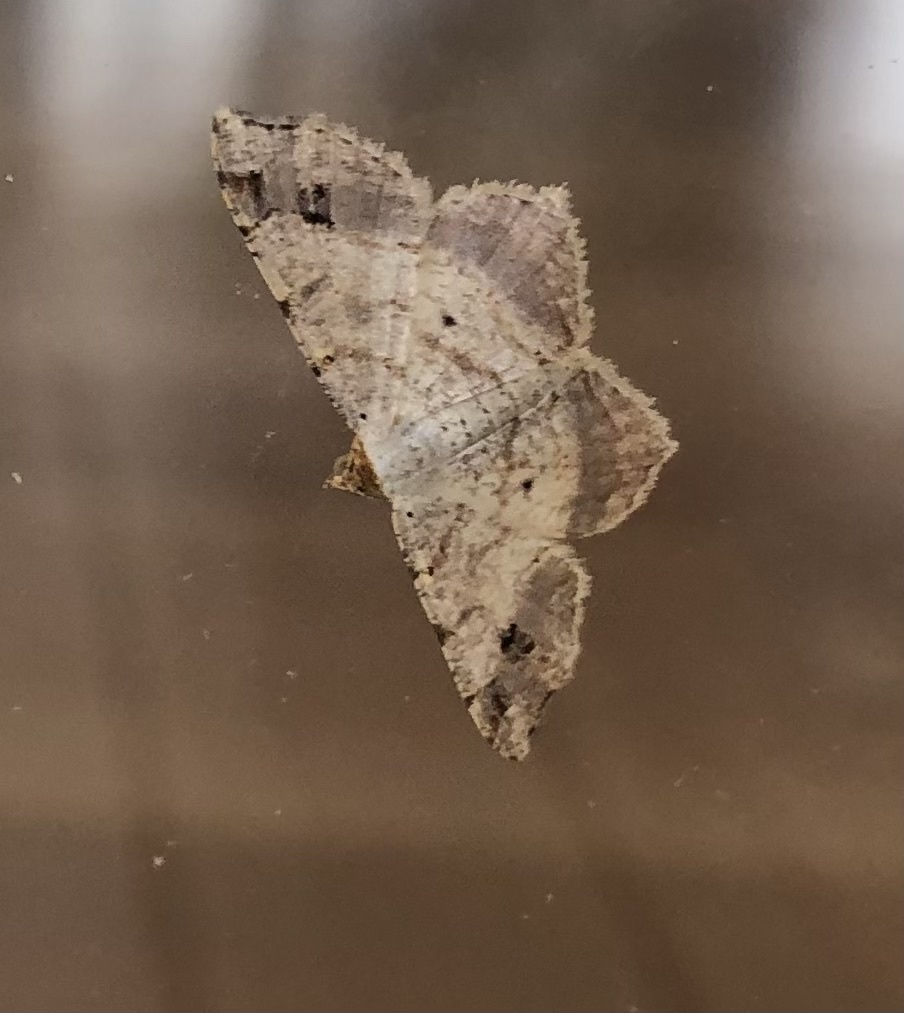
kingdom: Animalia
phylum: Arthropoda
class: Insecta
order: Lepidoptera
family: Geometridae
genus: Macaria
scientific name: Macaria aemulataria
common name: Common angle
